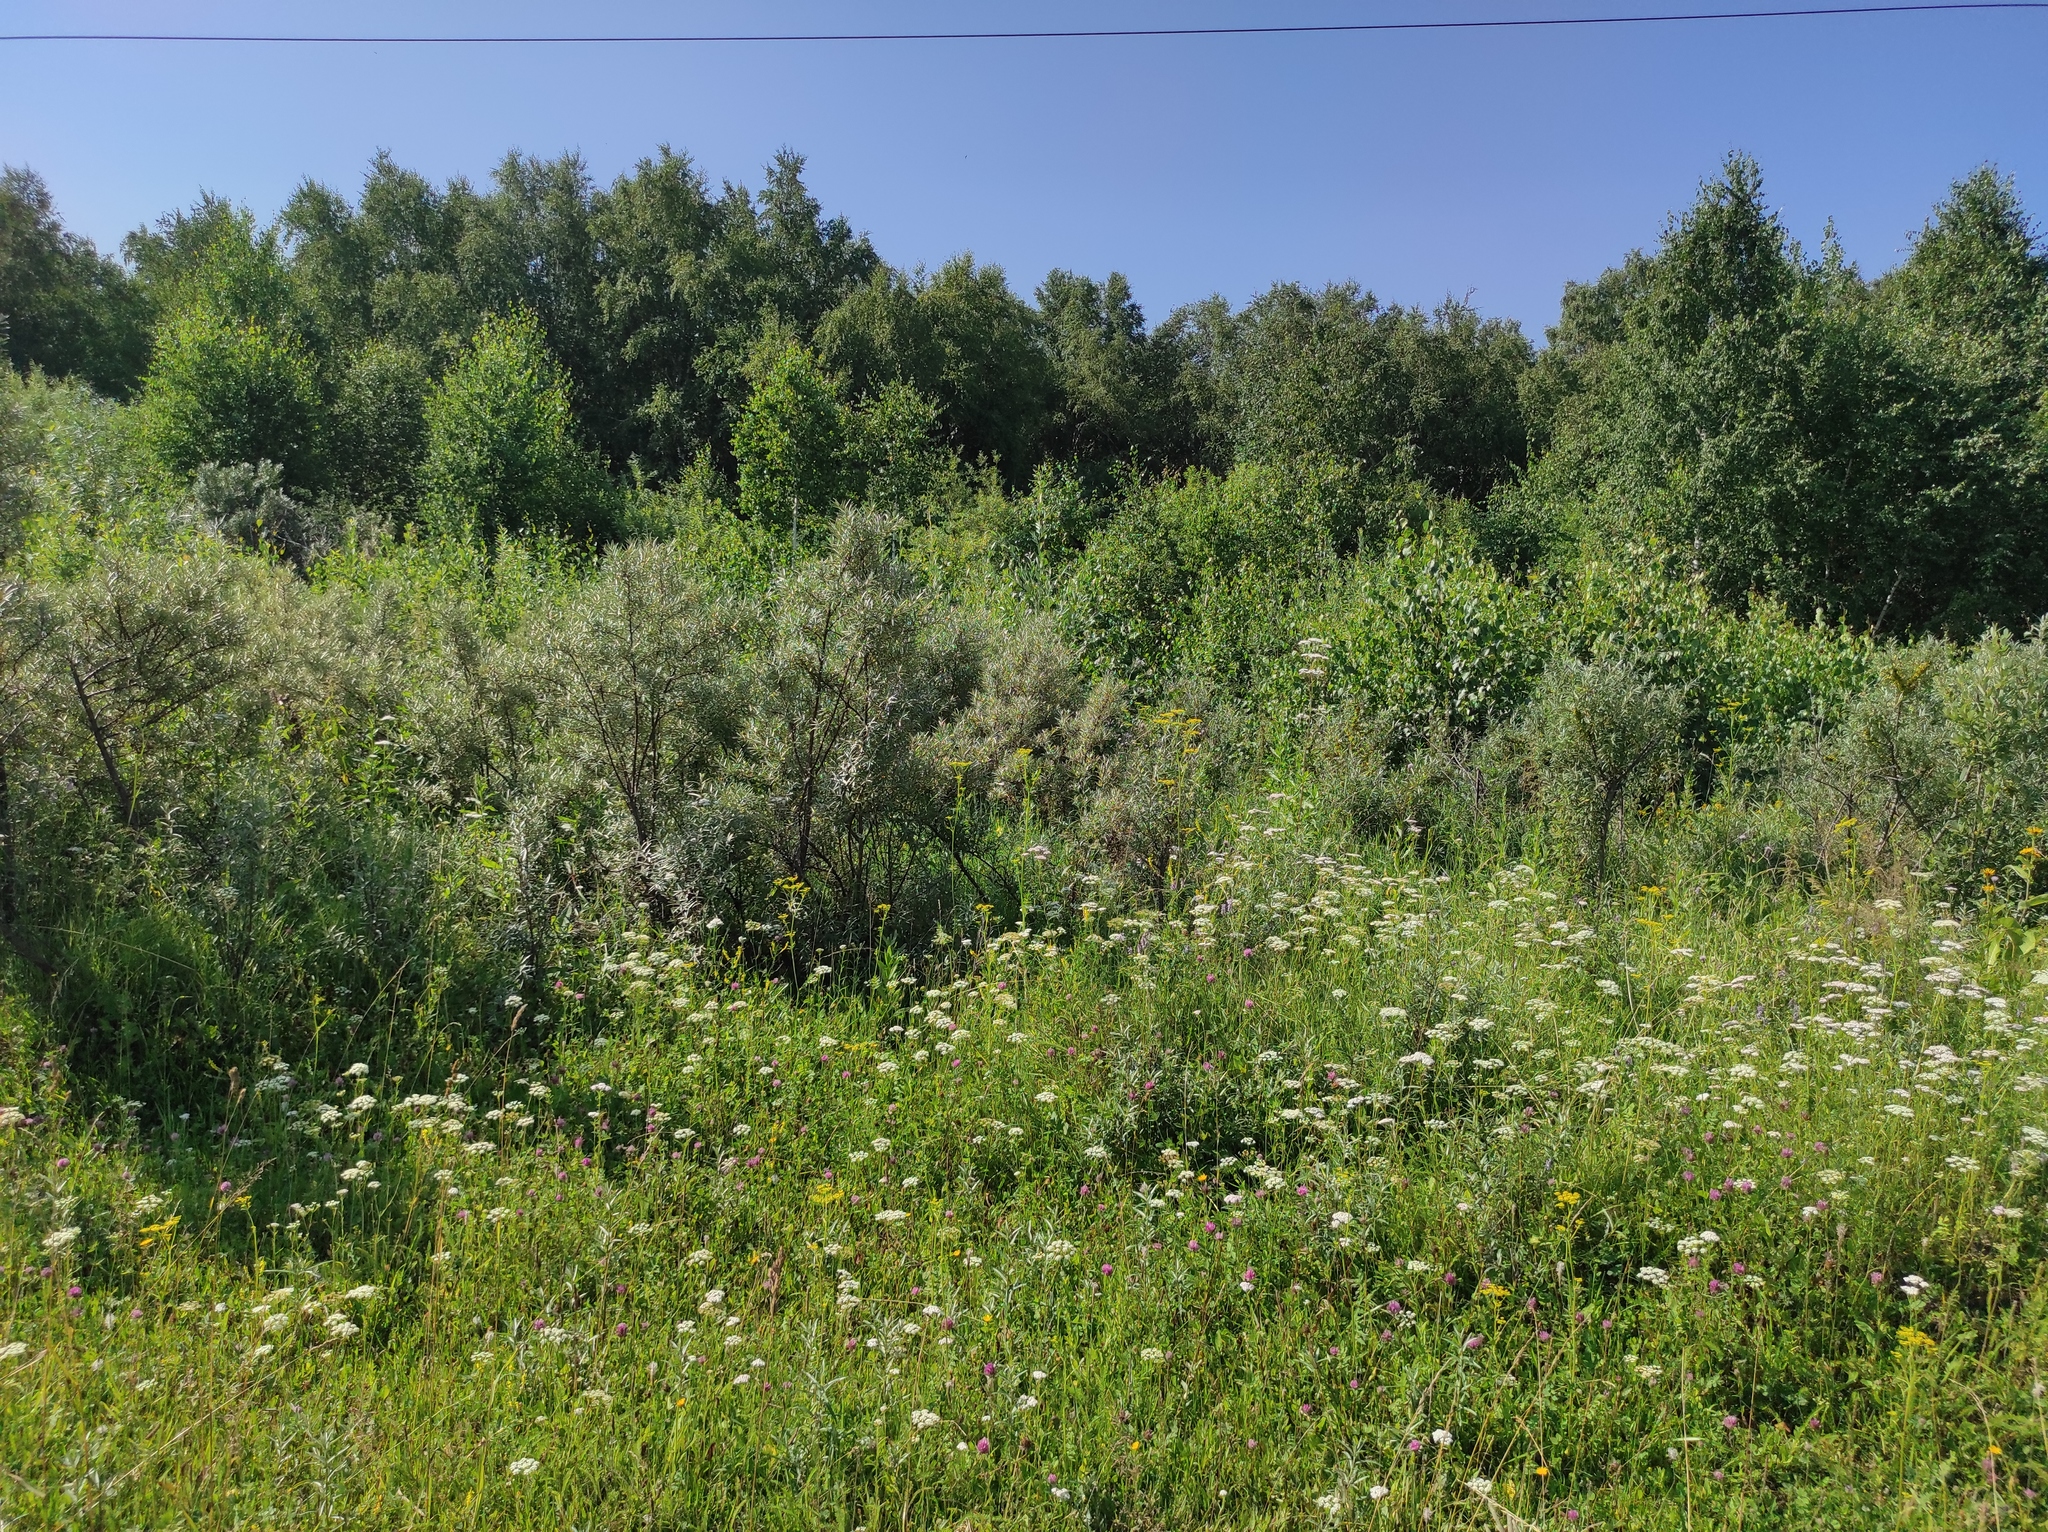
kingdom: Plantae
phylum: Tracheophyta
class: Magnoliopsida
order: Rosales
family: Elaeagnaceae
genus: Hippophae
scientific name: Hippophae rhamnoides
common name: Sea-buckthorn
